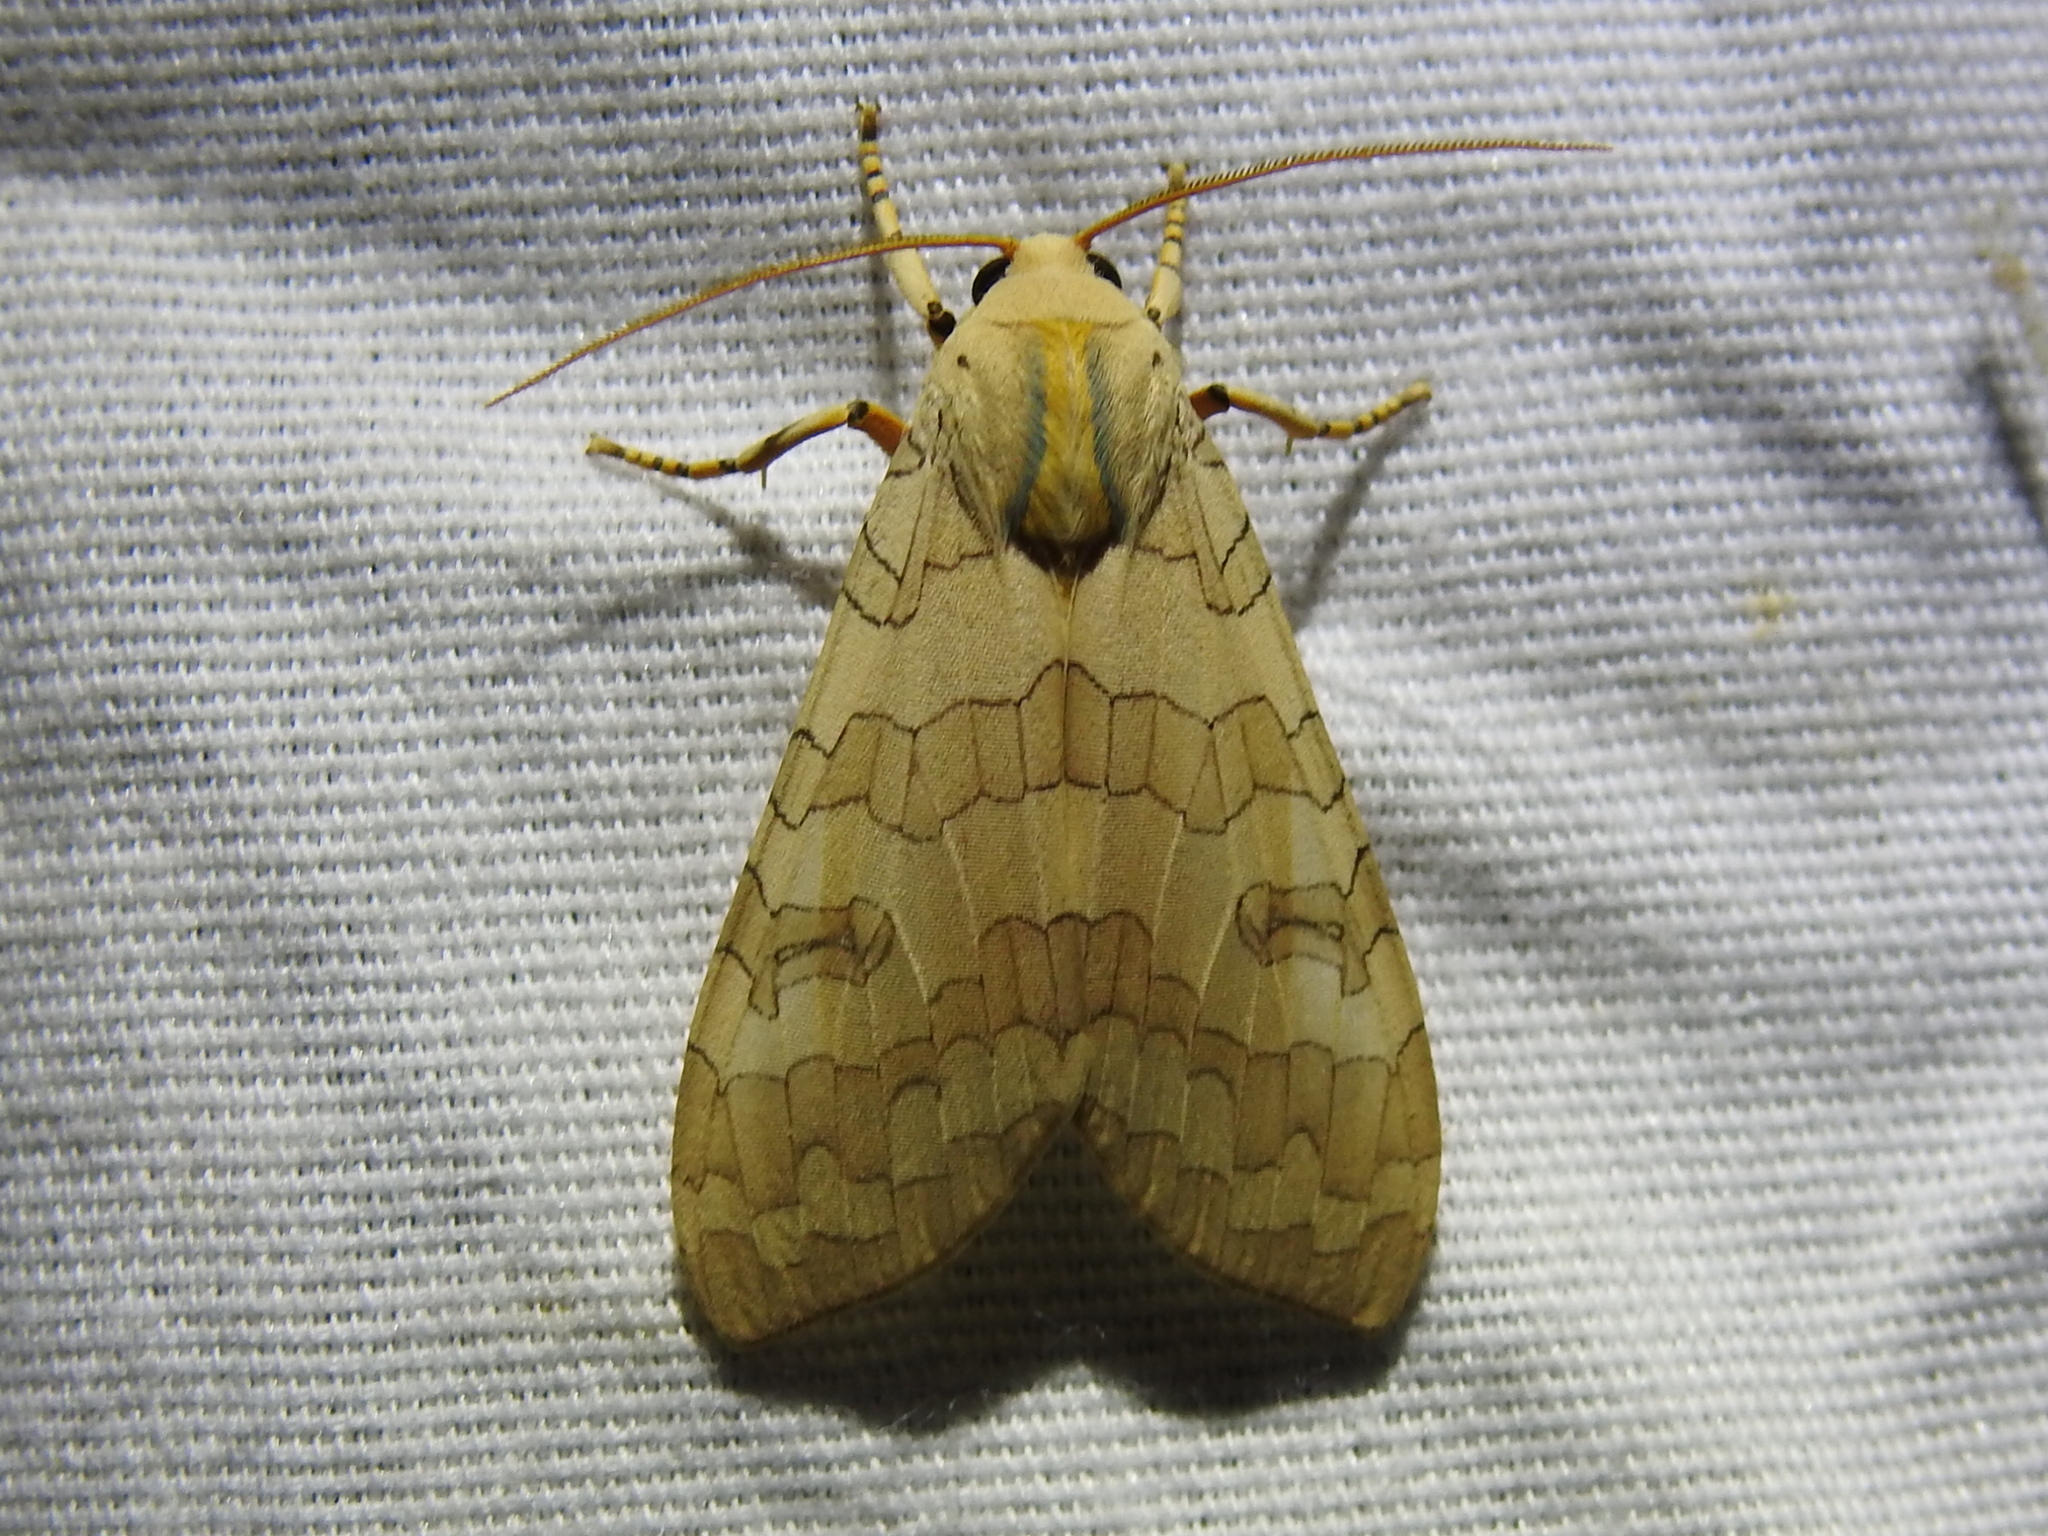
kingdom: Animalia
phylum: Arthropoda
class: Insecta
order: Lepidoptera
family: Erebidae
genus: Halysidota
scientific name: Halysidota
